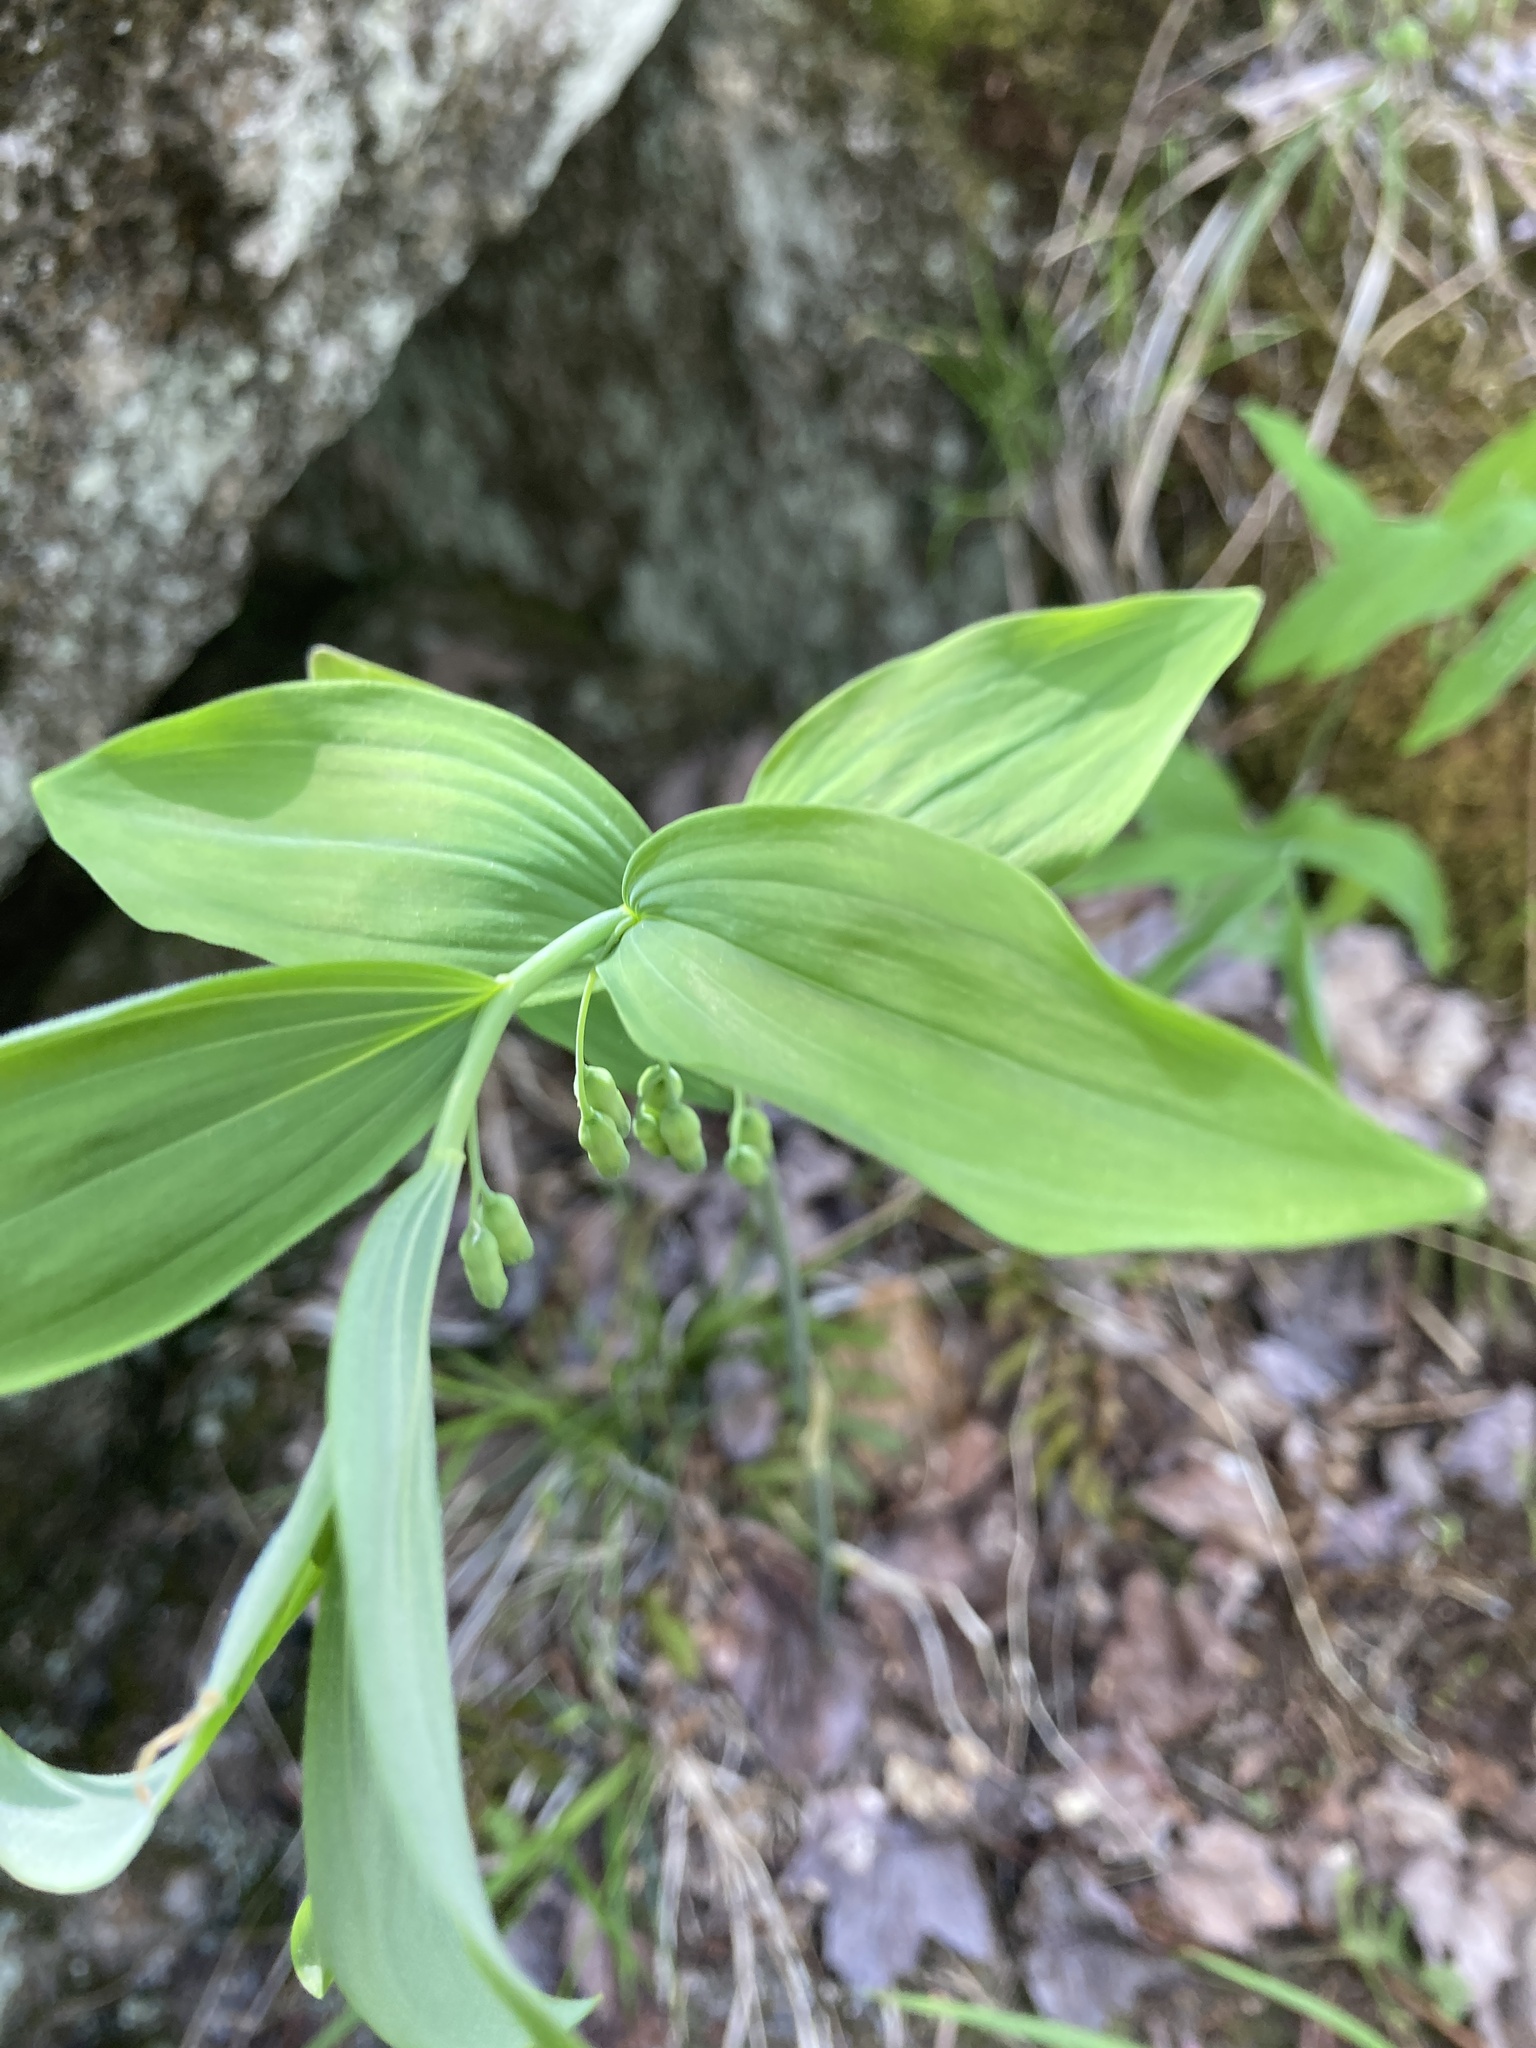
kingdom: Plantae
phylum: Tracheophyta
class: Liliopsida
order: Asparagales
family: Asparagaceae
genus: Polygonatum
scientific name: Polygonatum pubescens
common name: Downy solomon's seal
